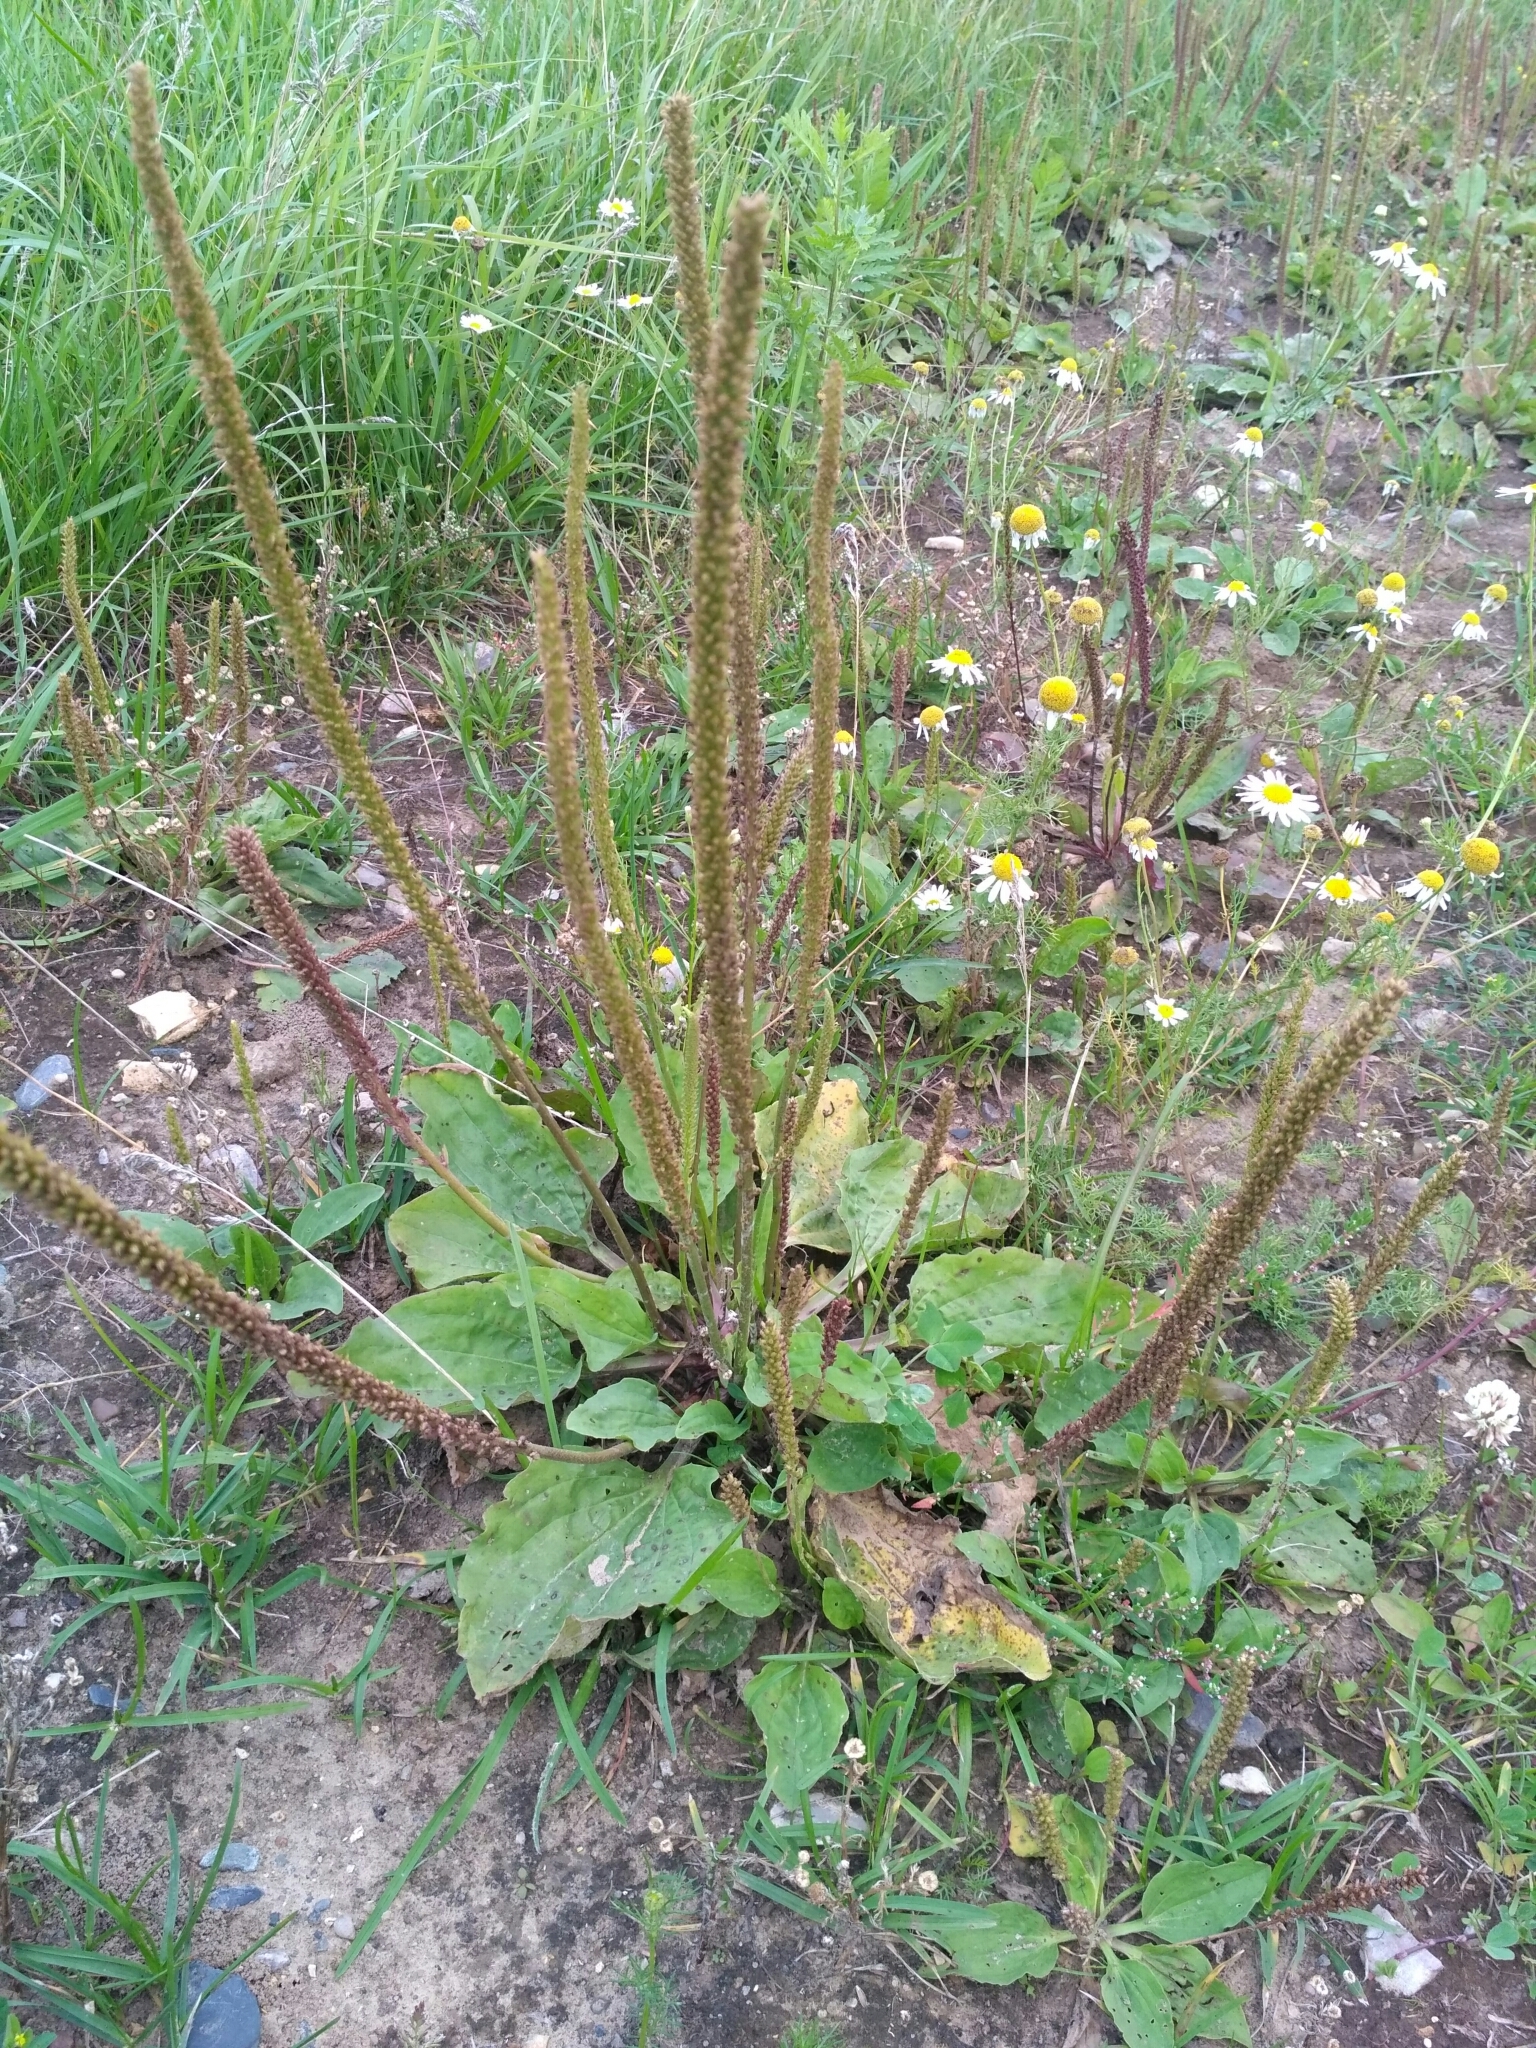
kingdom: Plantae
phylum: Tracheophyta
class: Magnoliopsida
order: Lamiales
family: Plantaginaceae
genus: Plantago
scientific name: Plantago major
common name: Common plantain
